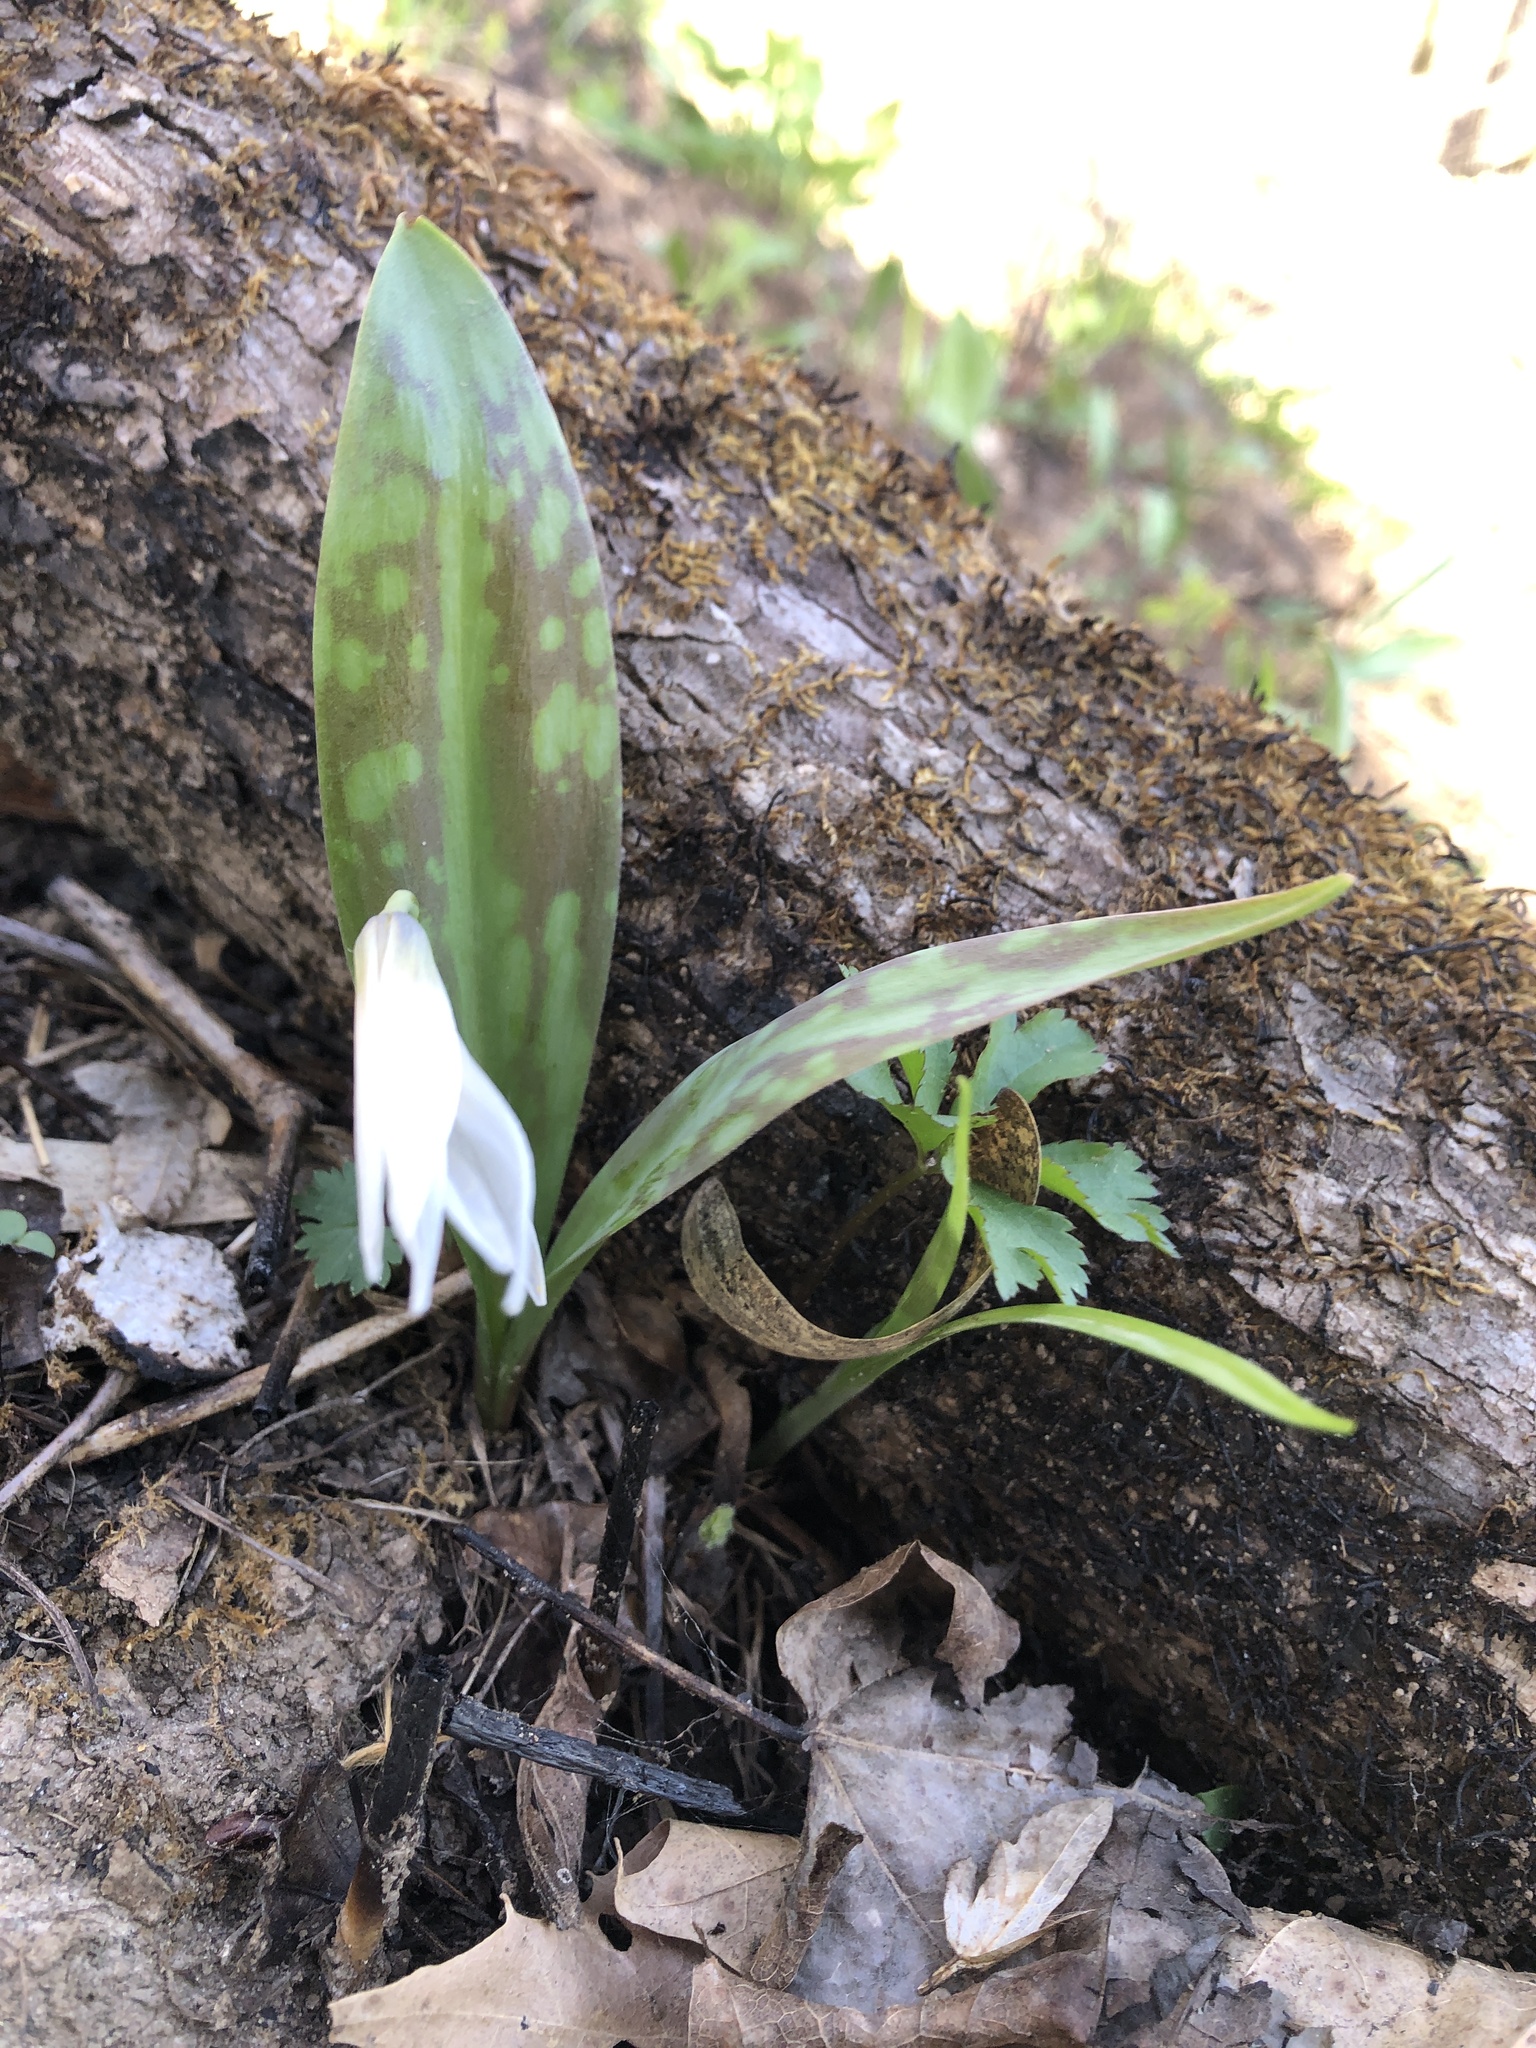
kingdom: Plantae
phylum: Tracheophyta
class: Liliopsida
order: Liliales
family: Liliaceae
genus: Erythronium
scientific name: Erythronium albidum
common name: White trout-lily
